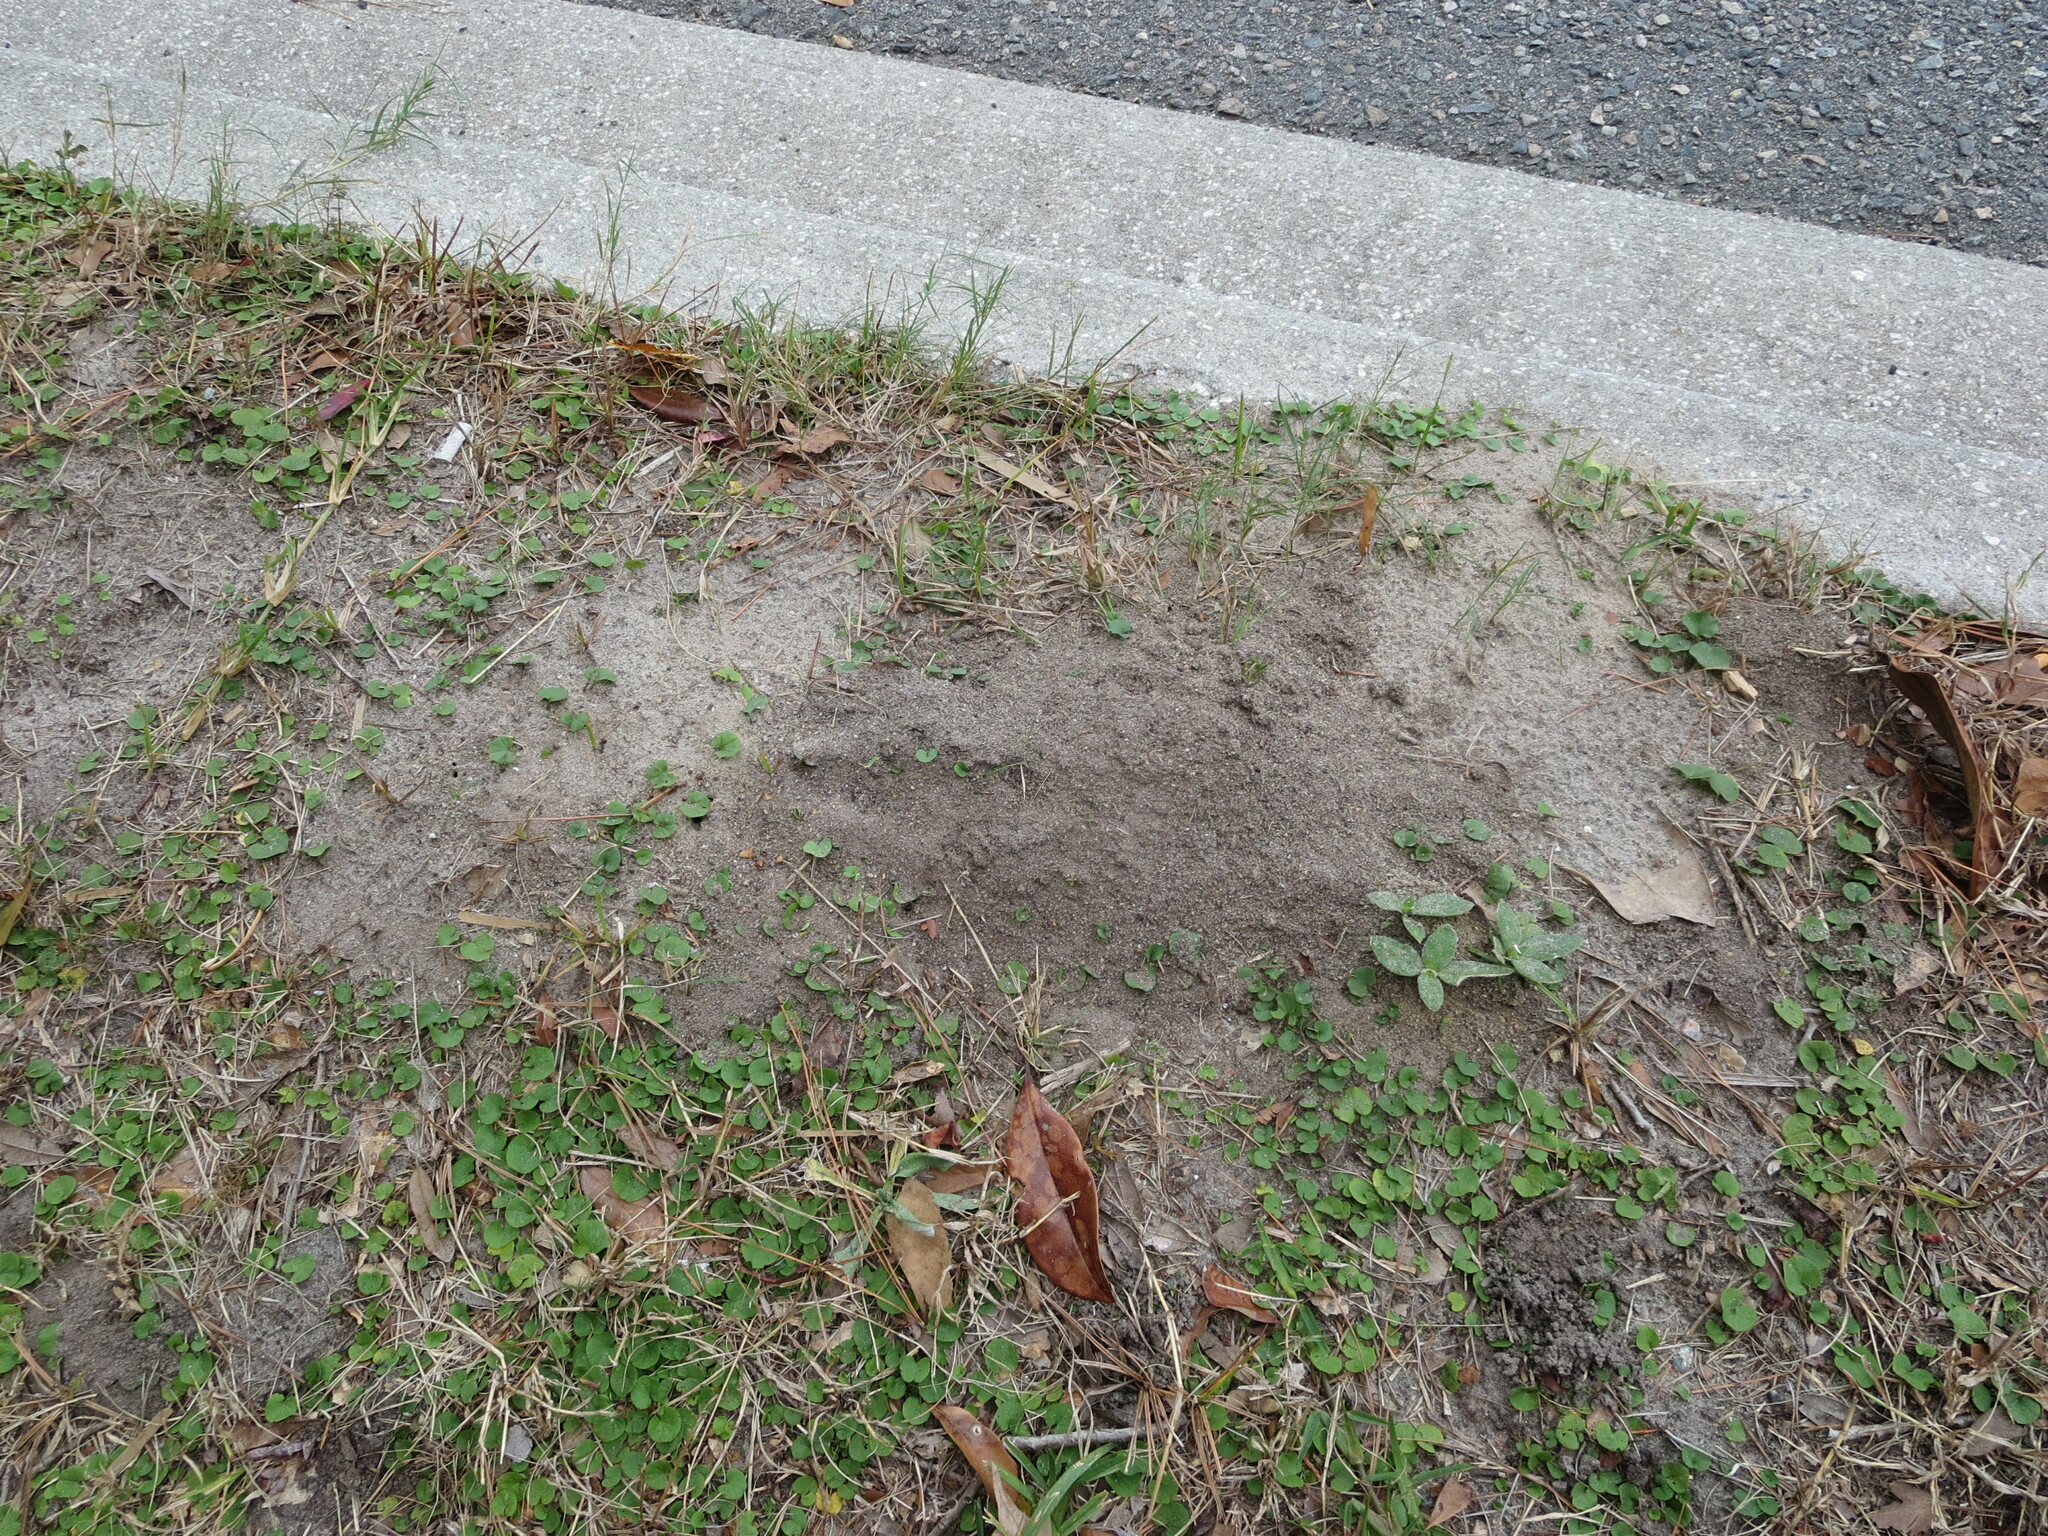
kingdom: Animalia
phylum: Arthropoda
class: Insecta
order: Hymenoptera
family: Formicidae
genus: Solenopsis
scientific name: Solenopsis invicta
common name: Red imported fire ant
